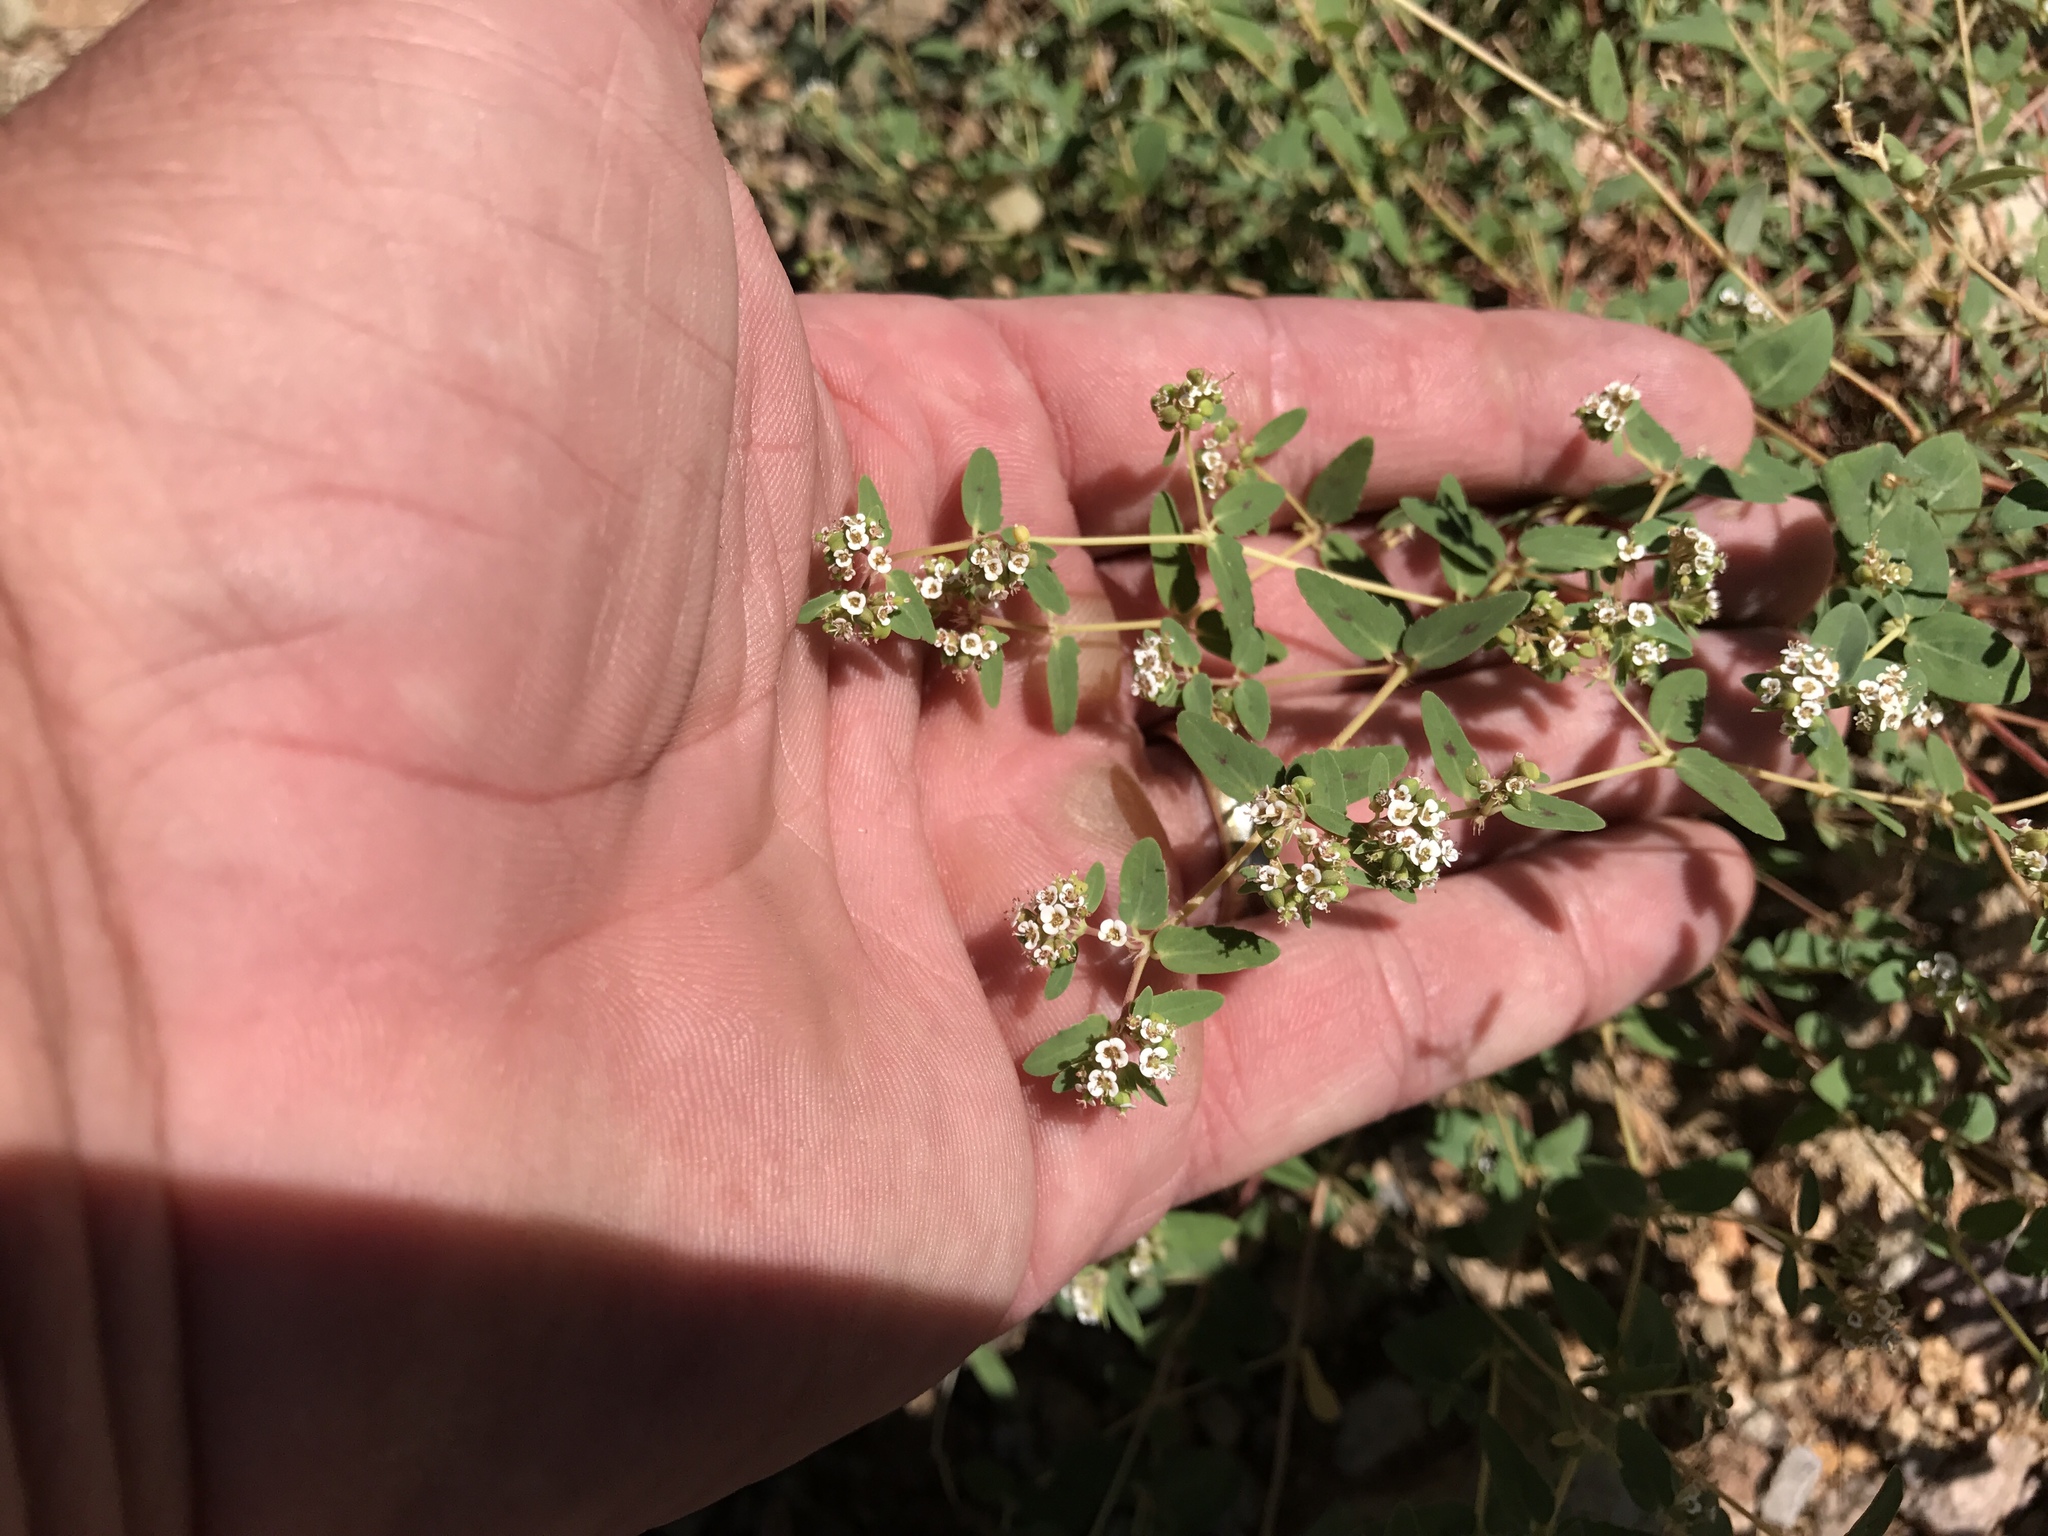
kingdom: Plantae
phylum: Tracheophyta
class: Magnoliopsida
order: Malpighiales
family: Euphorbiaceae
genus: Euphorbia
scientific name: Euphorbia capitellata
